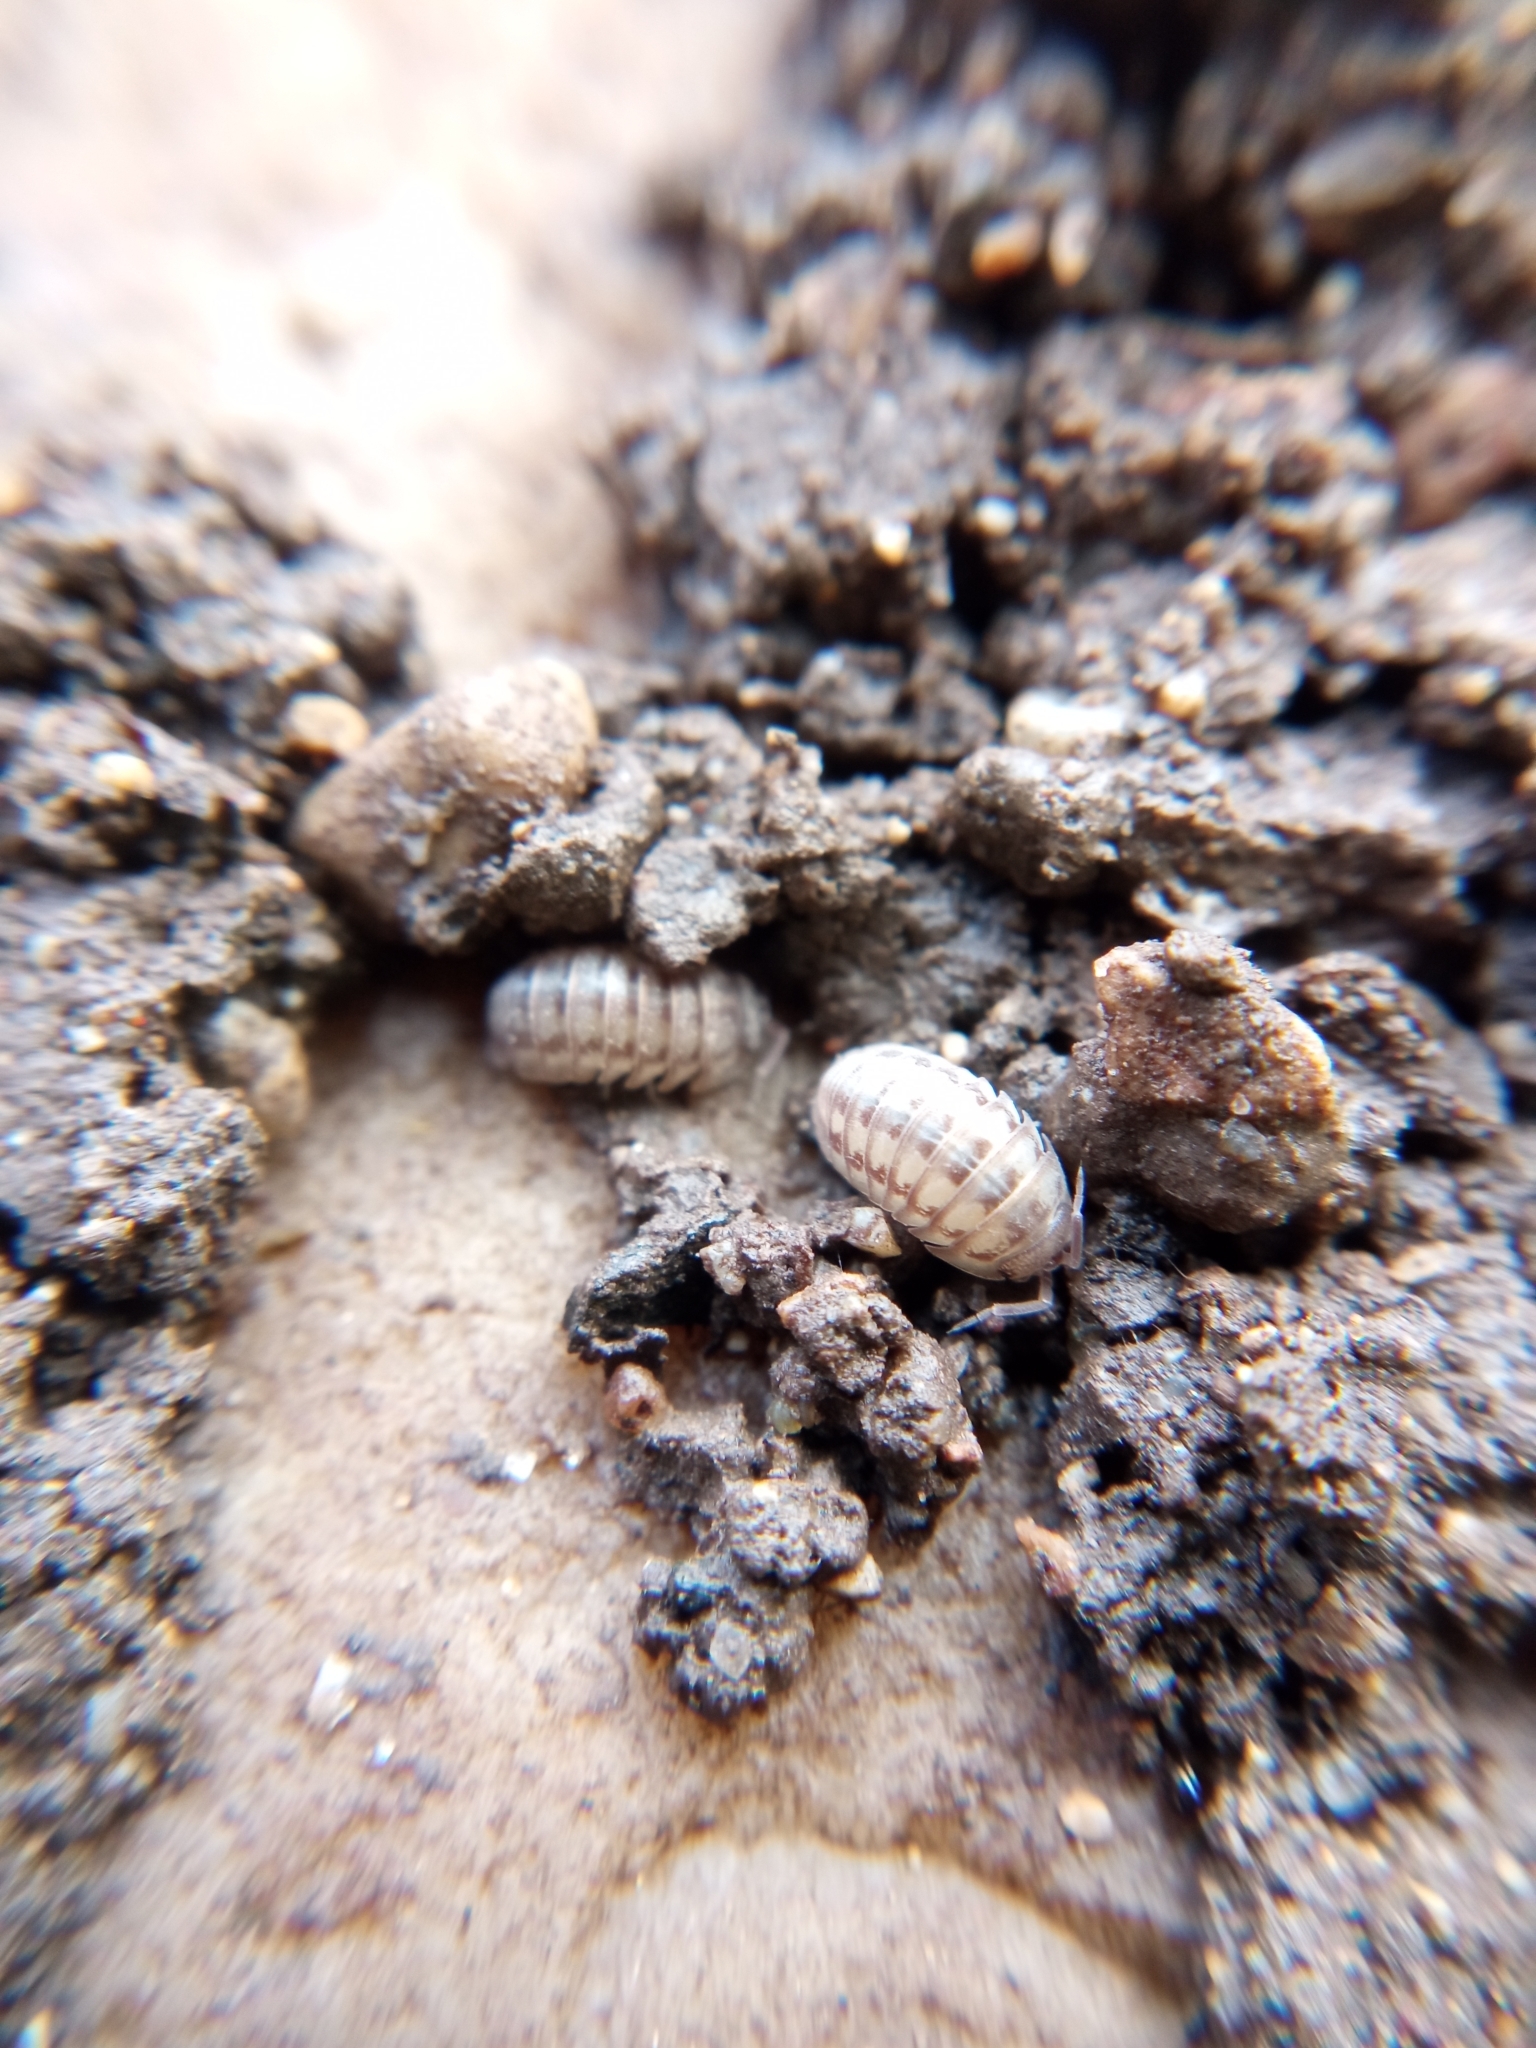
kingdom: Animalia
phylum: Arthropoda
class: Malacostraca
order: Isopoda
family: Armadillidiidae
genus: Armadillidium
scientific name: Armadillidium nasatum
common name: Isopod
